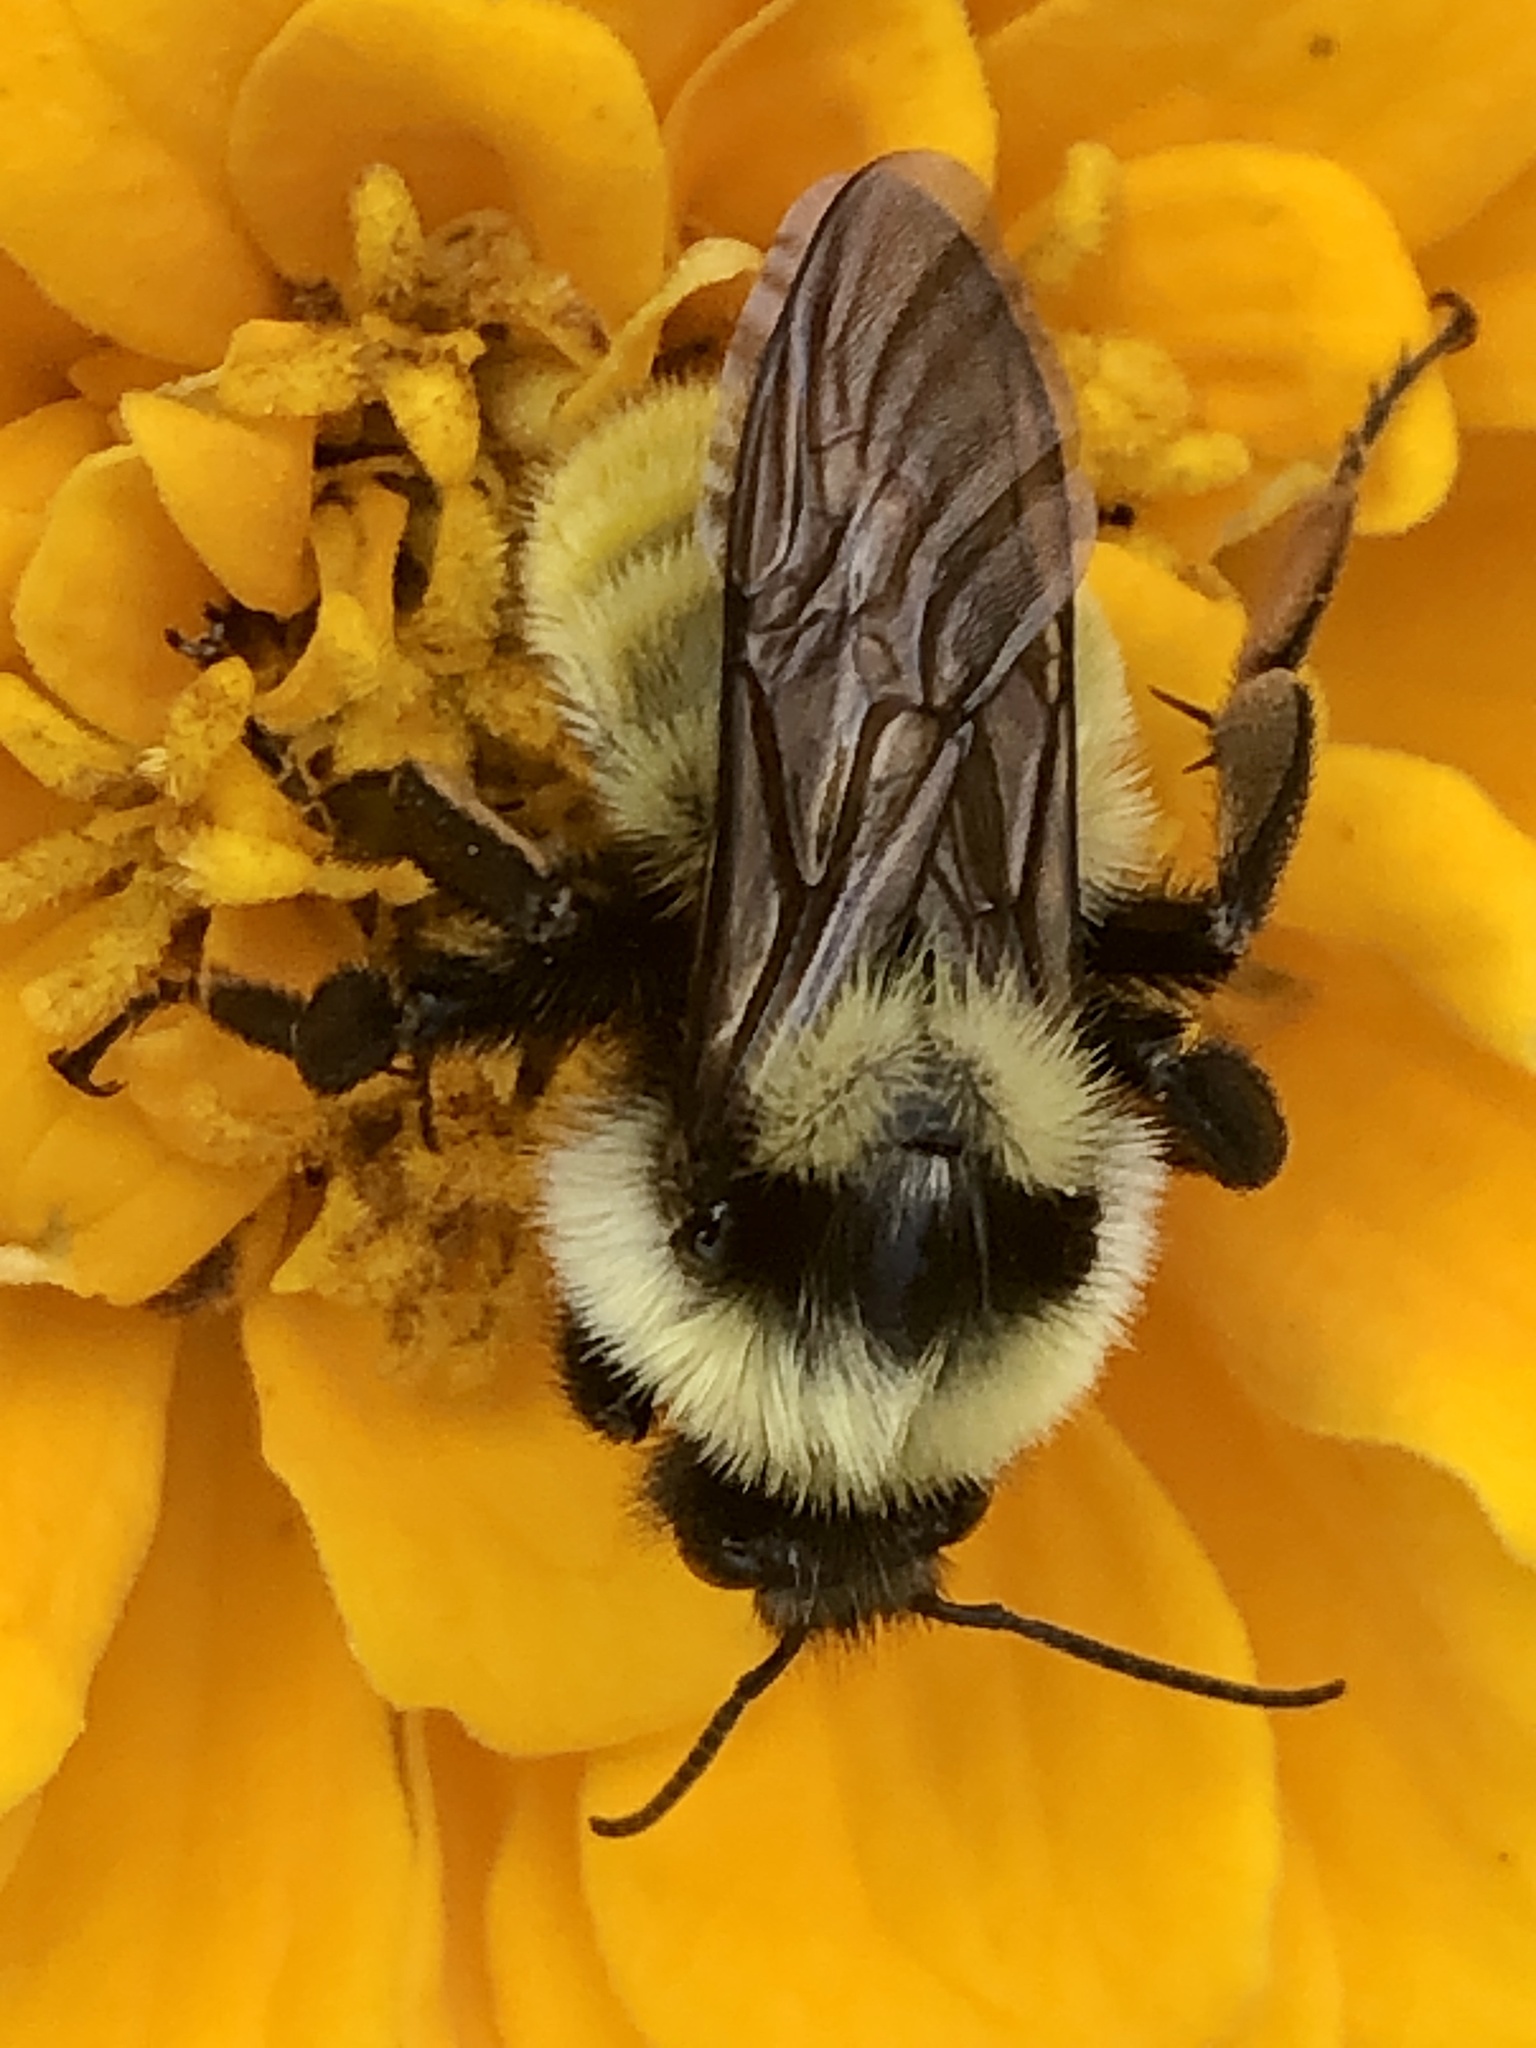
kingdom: Animalia
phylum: Arthropoda
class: Insecta
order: Hymenoptera
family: Apidae
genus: Bombus
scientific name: Bombus fervidus
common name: Yellow bumble bee
